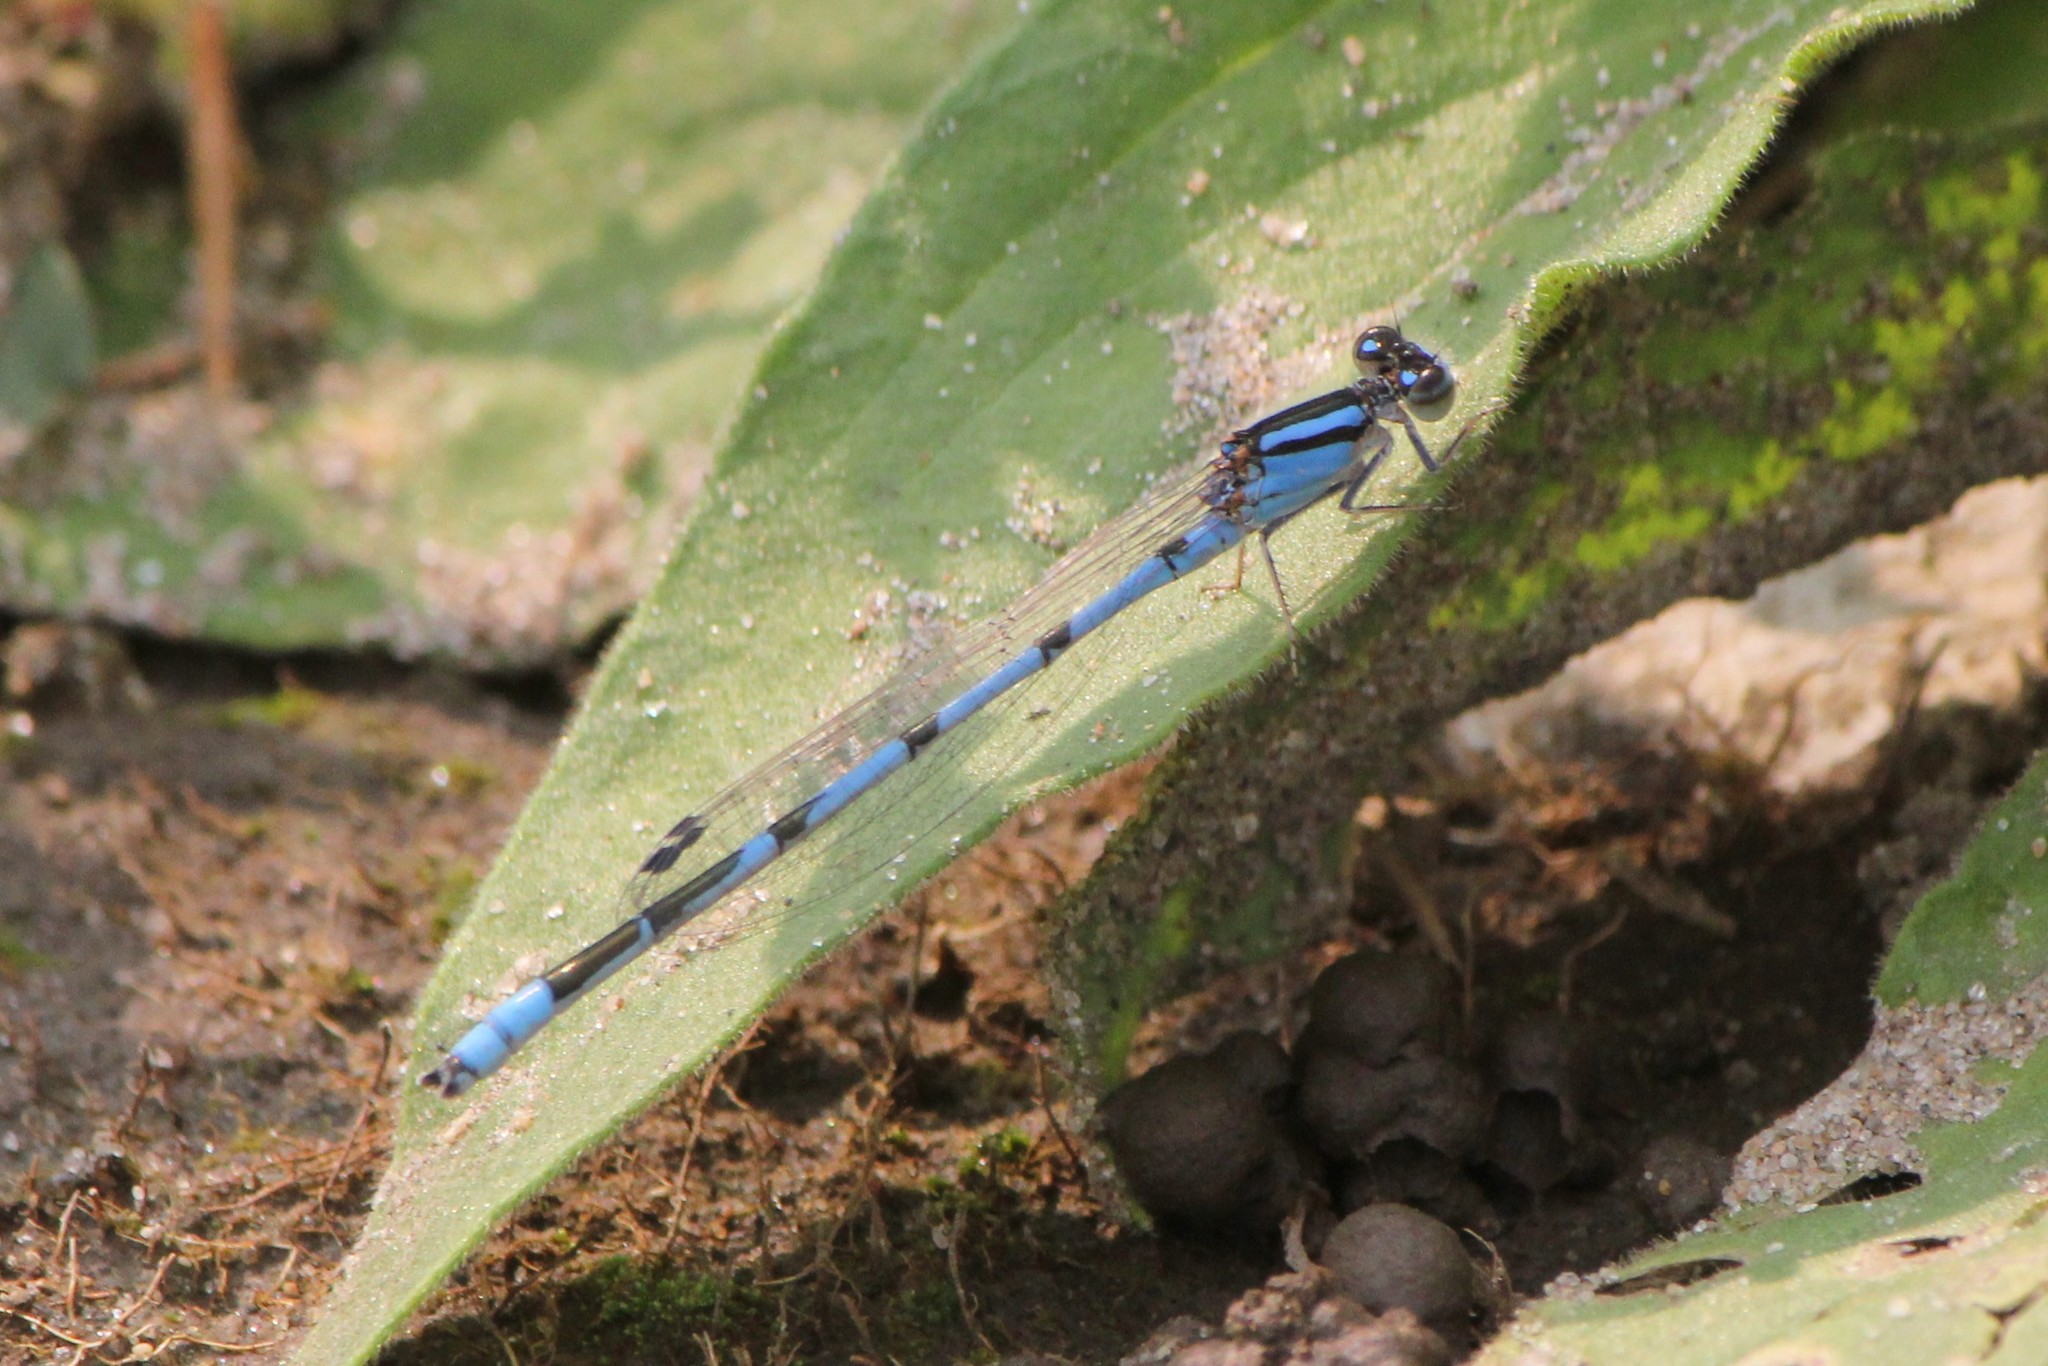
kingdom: Animalia
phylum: Arthropoda
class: Insecta
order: Odonata
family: Coenagrionidae
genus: Enallagma
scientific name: Enallagma civile
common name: Damselfly
